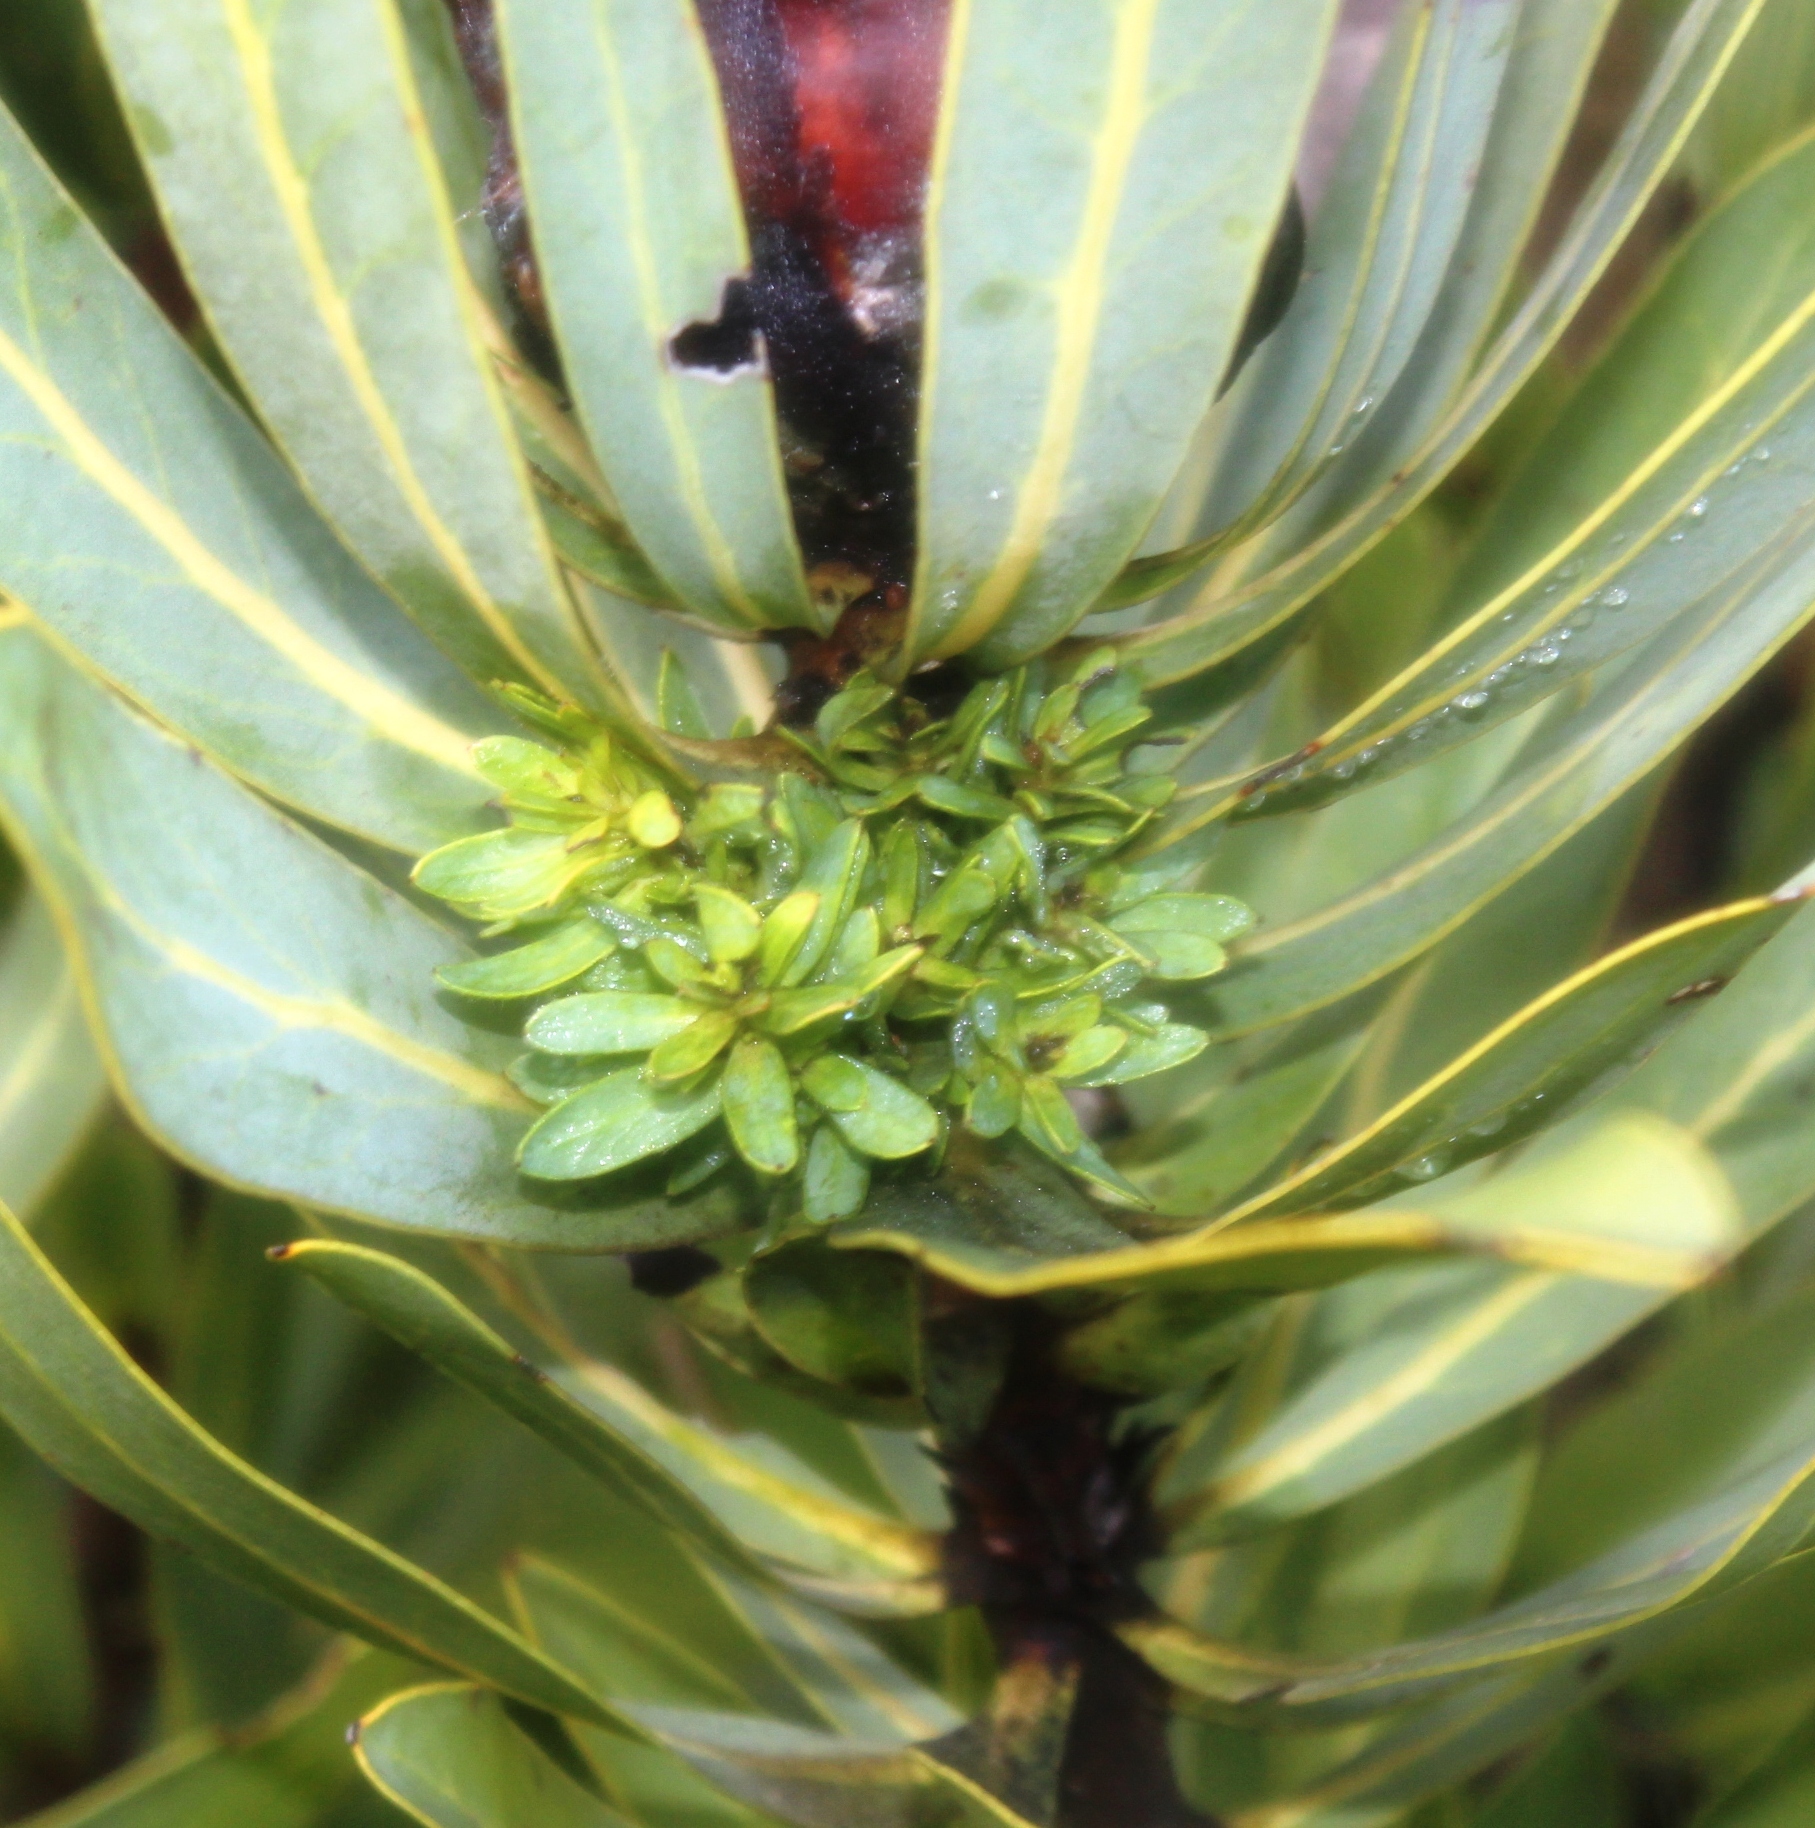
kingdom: Bacteria
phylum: Firmicutes
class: Bacilli
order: Acholeplasmatales
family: Acholeplasmataceae
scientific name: Acholeplasmataceae
